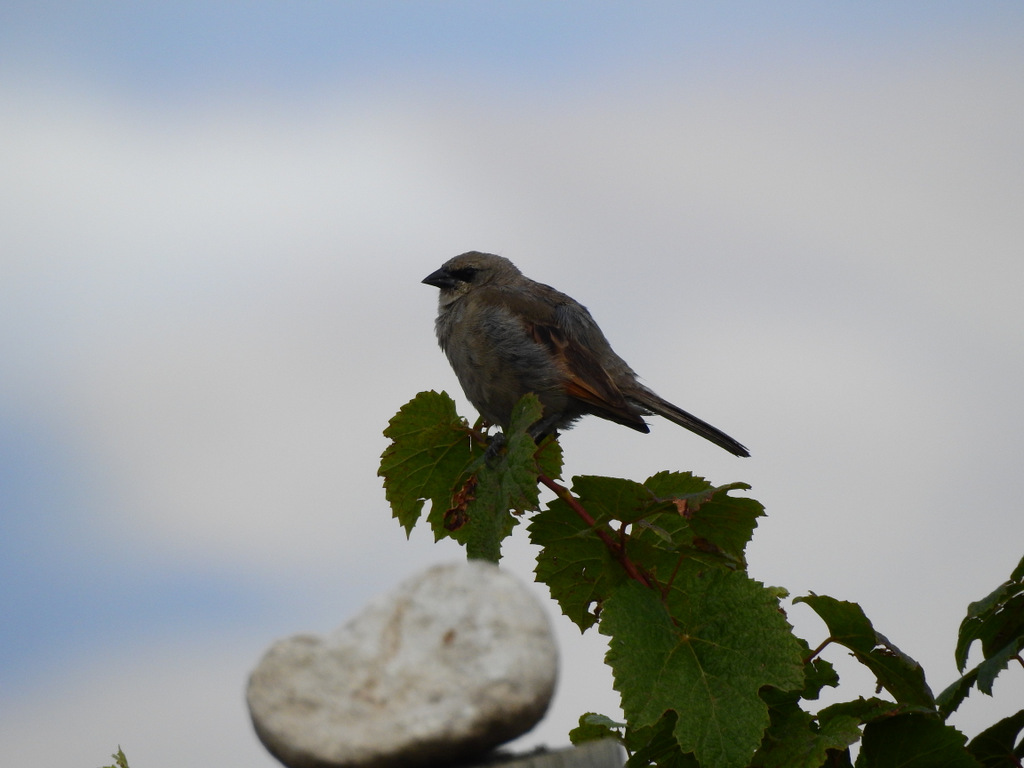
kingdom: Animalia
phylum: Chordata
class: Aves
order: Passeriformes
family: Icteridae
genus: Agelaioides
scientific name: Agelaioides badius
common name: Baywing
